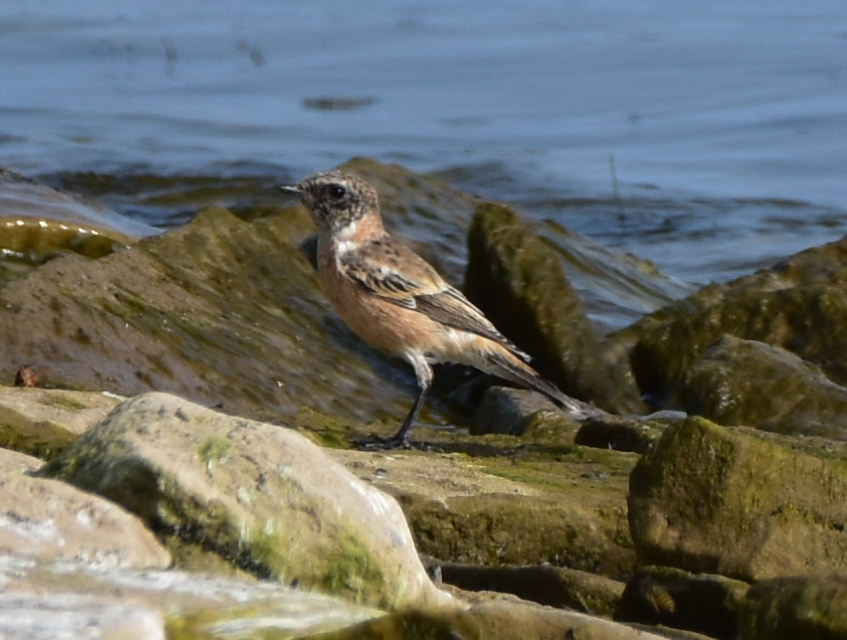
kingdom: Animalia
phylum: Chordata
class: Aves
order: Passeriformes
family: Muscicapidae
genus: Saxicola
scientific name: Saxicola maurus
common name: Siberian stonechat
